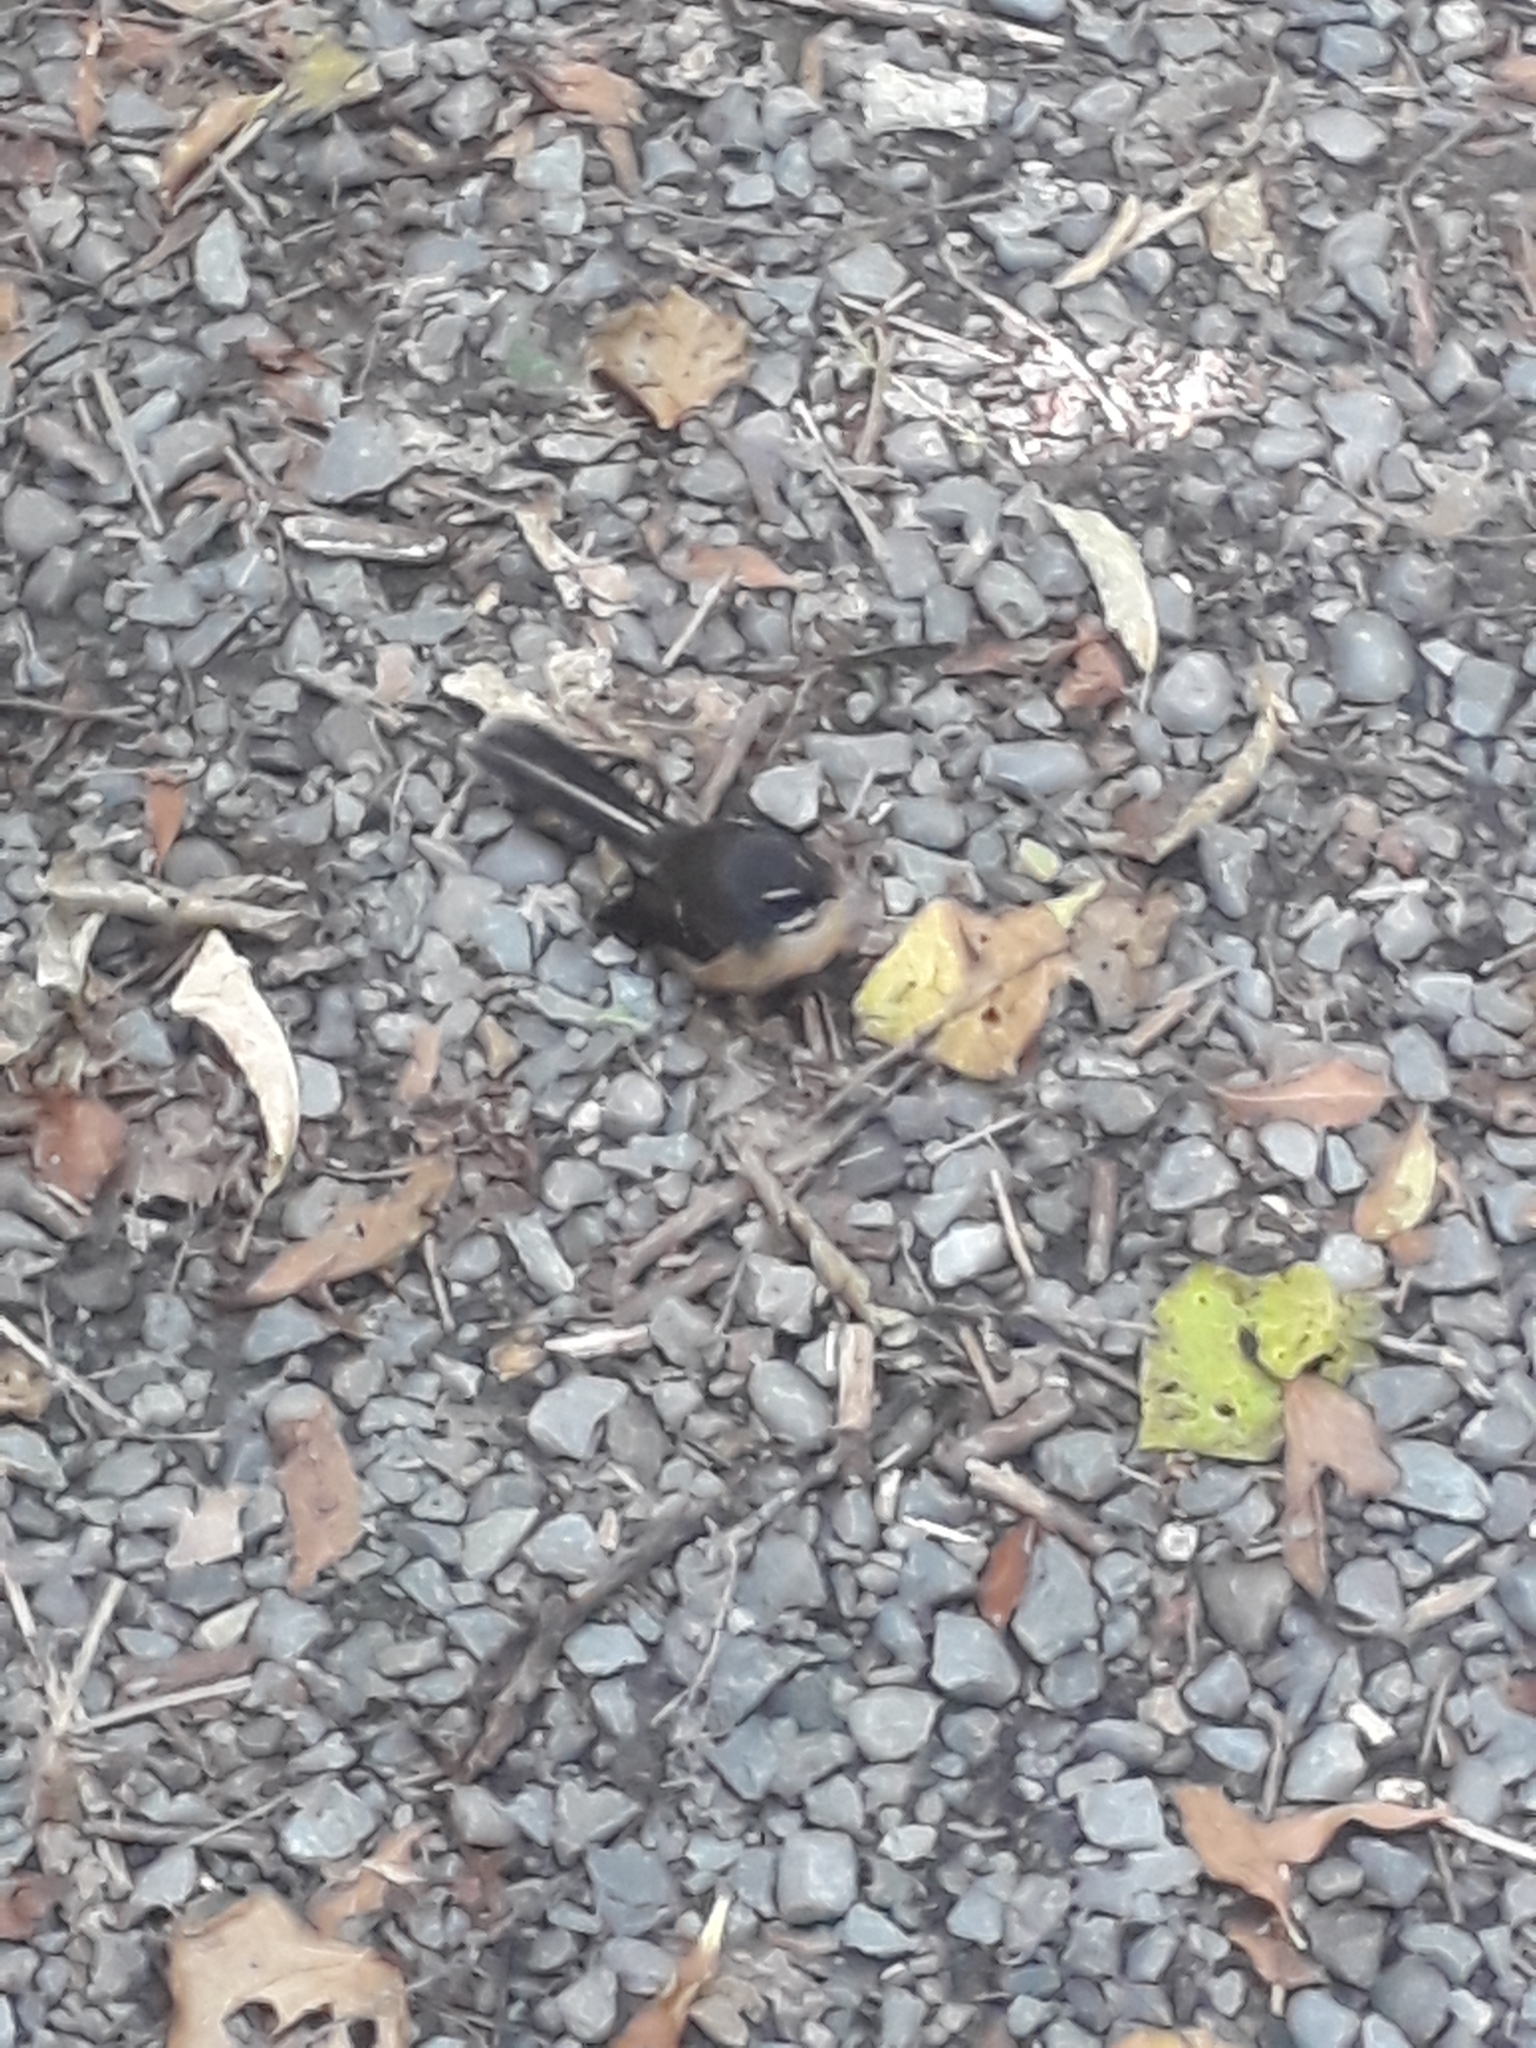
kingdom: Animalia
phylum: Chordata
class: Aves
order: Passeriformes
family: Rhipiduridae
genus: Rhipidura
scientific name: Rhipidura fuliginosa
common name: New zealand fantail
